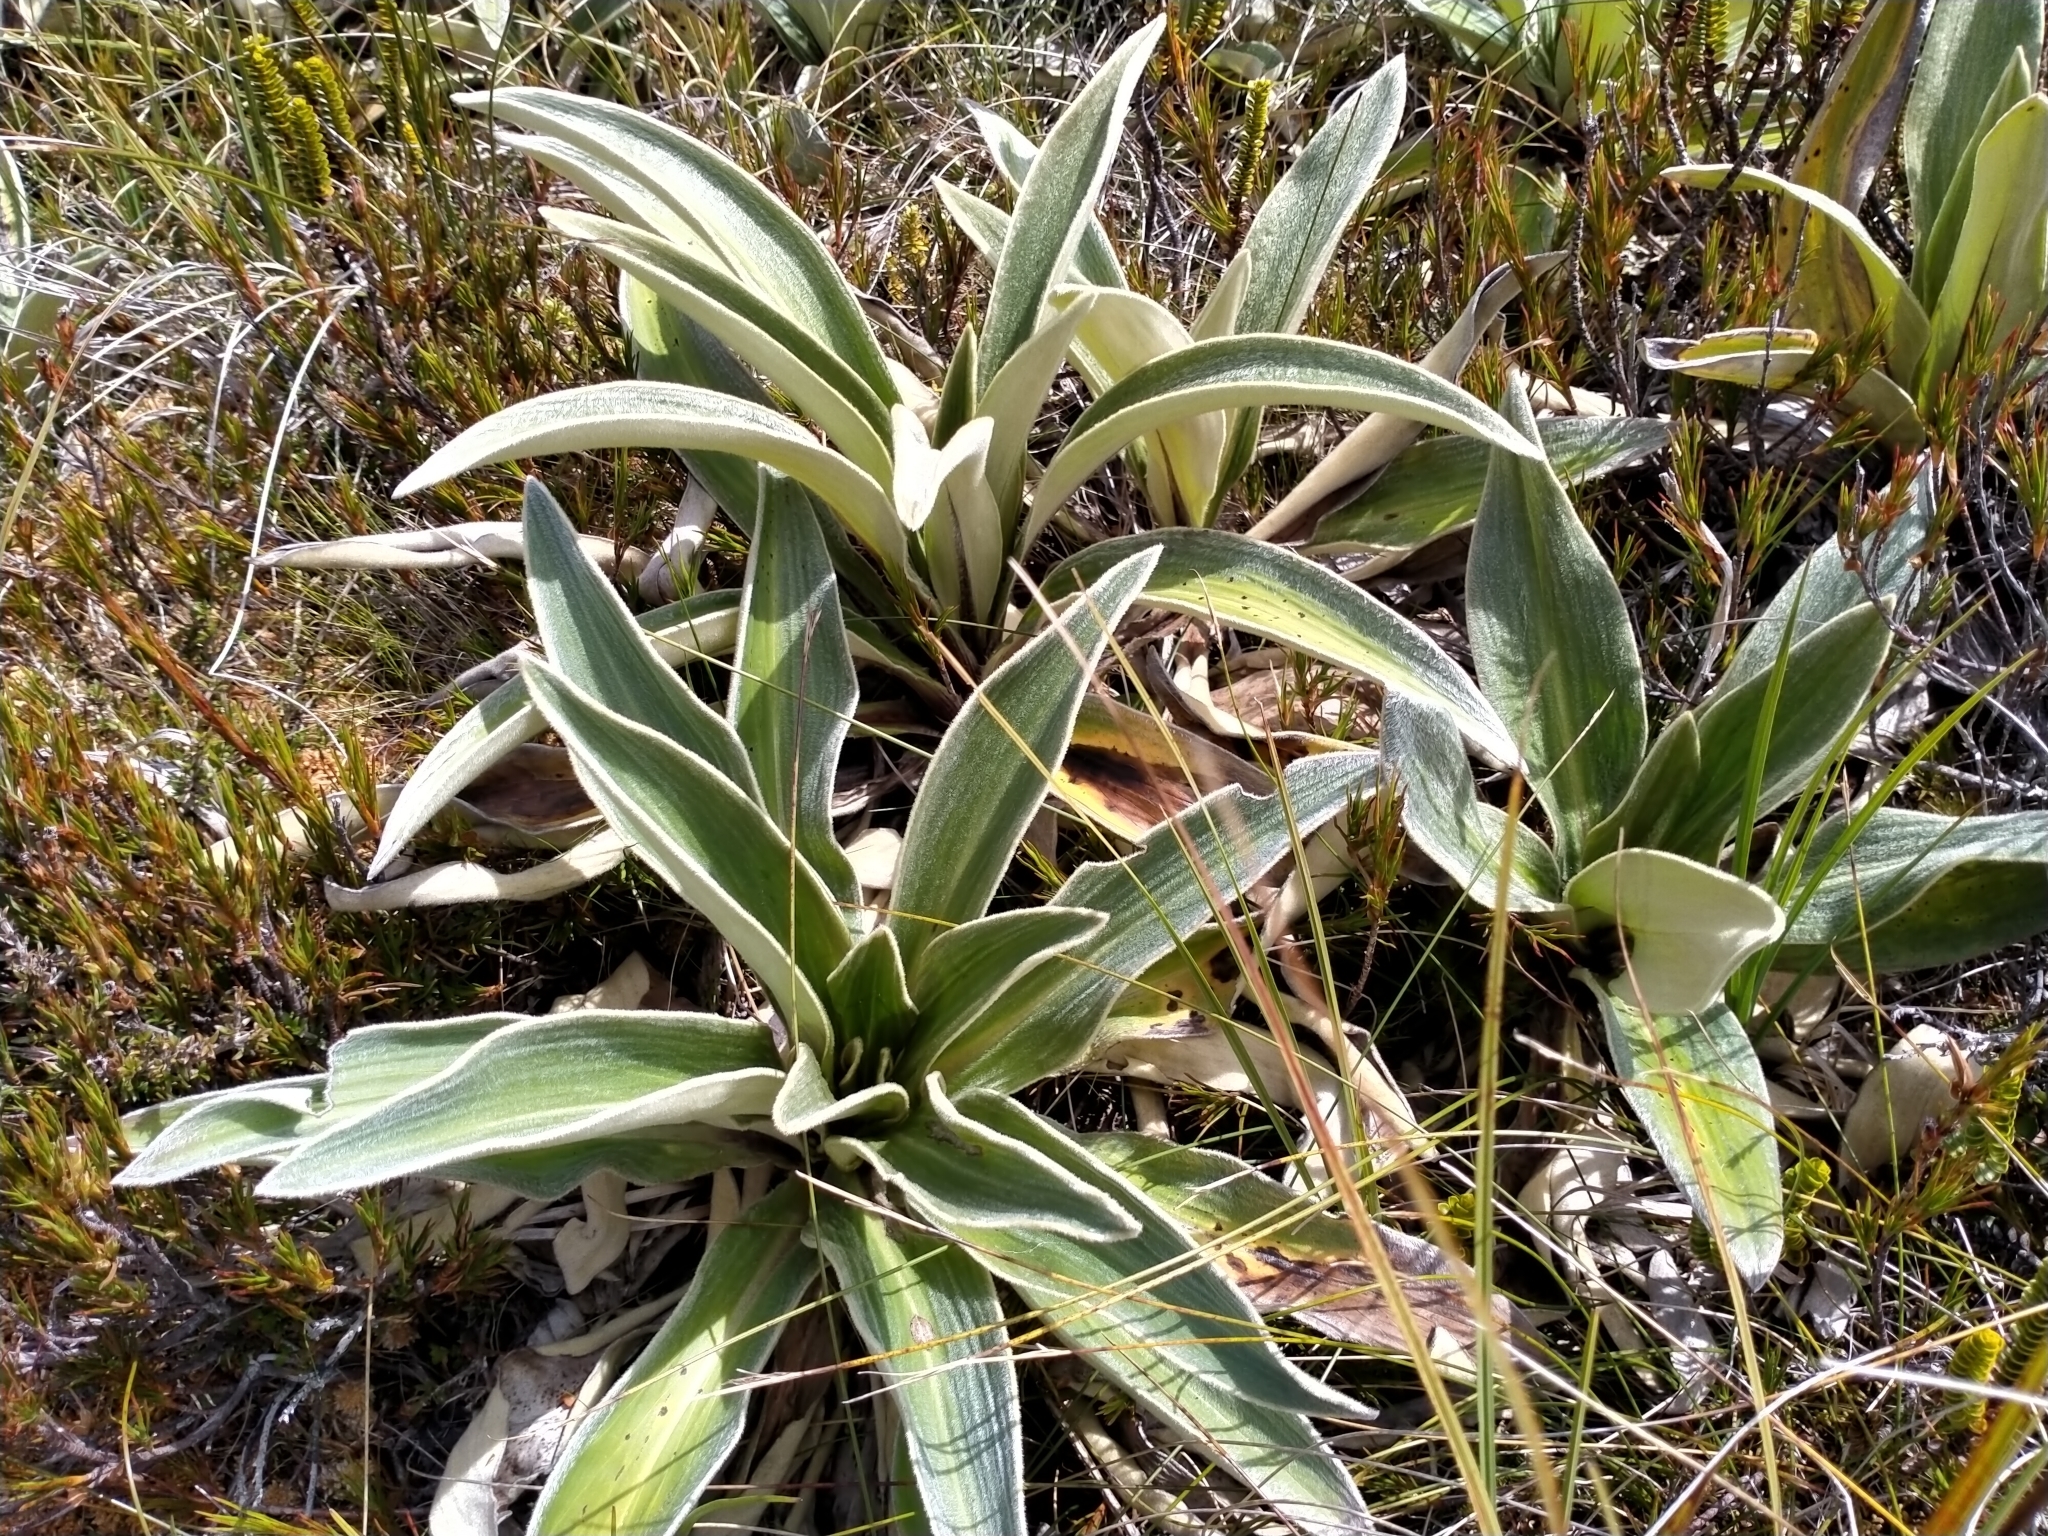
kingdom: Plantae
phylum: Tracheophyta
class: Magnoliopsida
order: Asterales
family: Asteraceae
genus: Celmisia
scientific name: Celmisia verbascifolia
